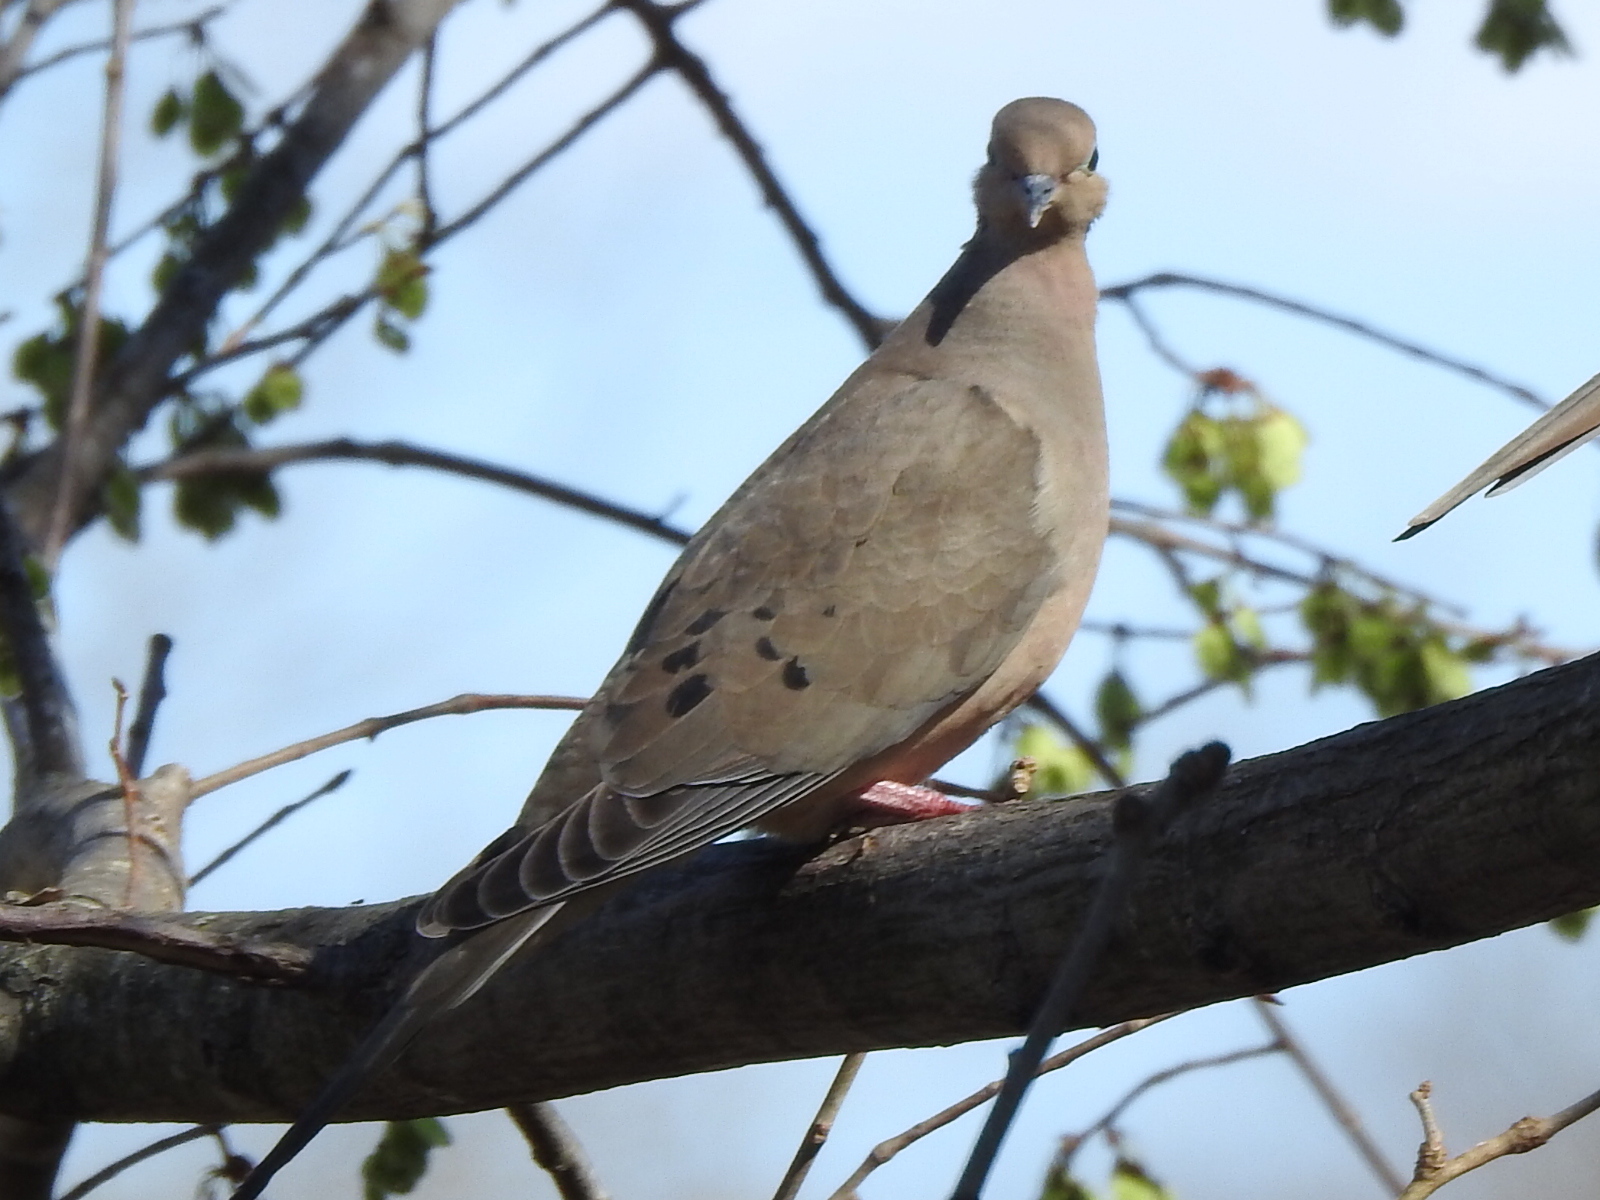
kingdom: Animalia
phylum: Chordata
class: Aves
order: Columbiformes
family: Columbidae
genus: Zenaida
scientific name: Zenaida macroura
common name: Mourning dove
